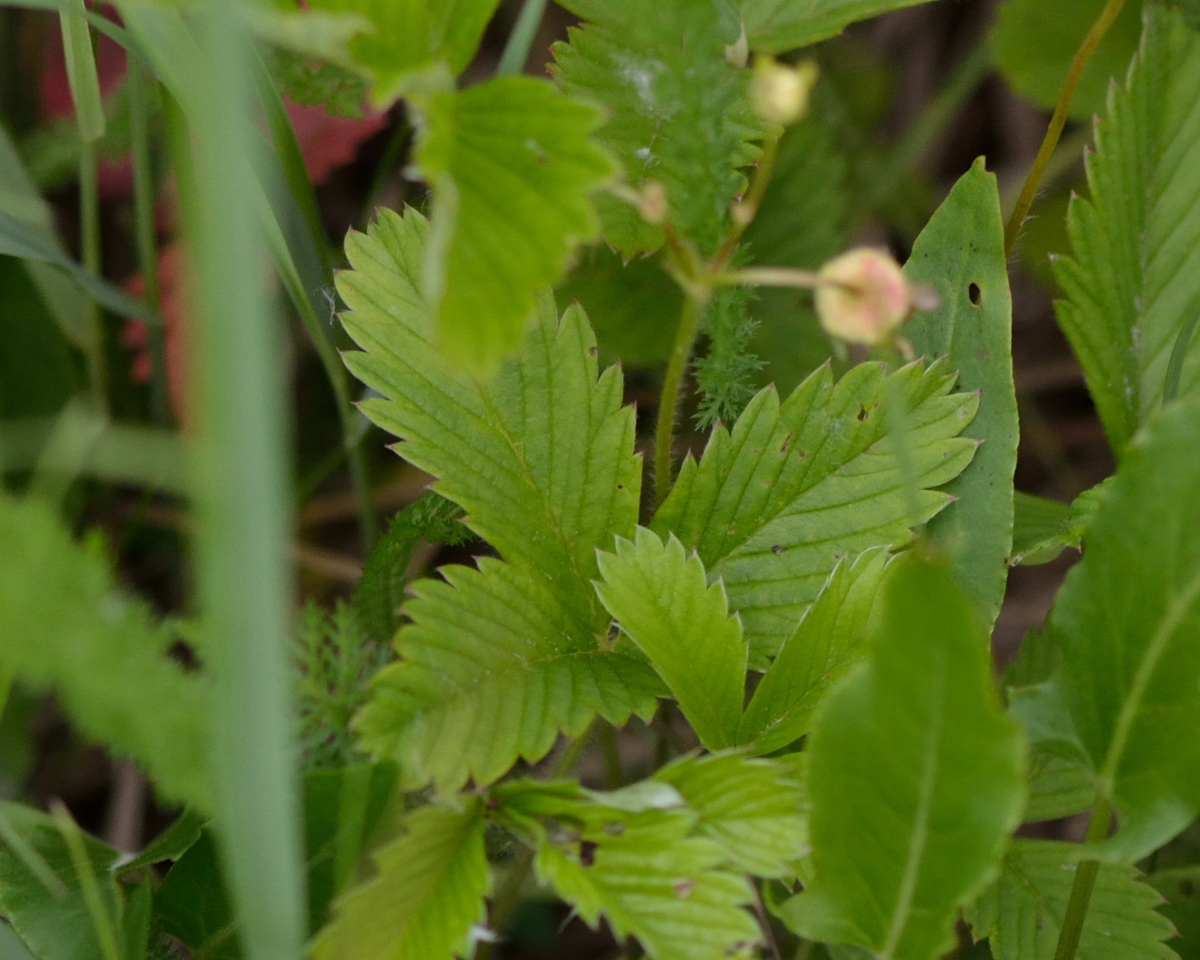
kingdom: Plantae
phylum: Tracheophyta
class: Magnoliopsida
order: Rosales
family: Rosaceae
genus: Fragaria
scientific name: Fragaria viridis
